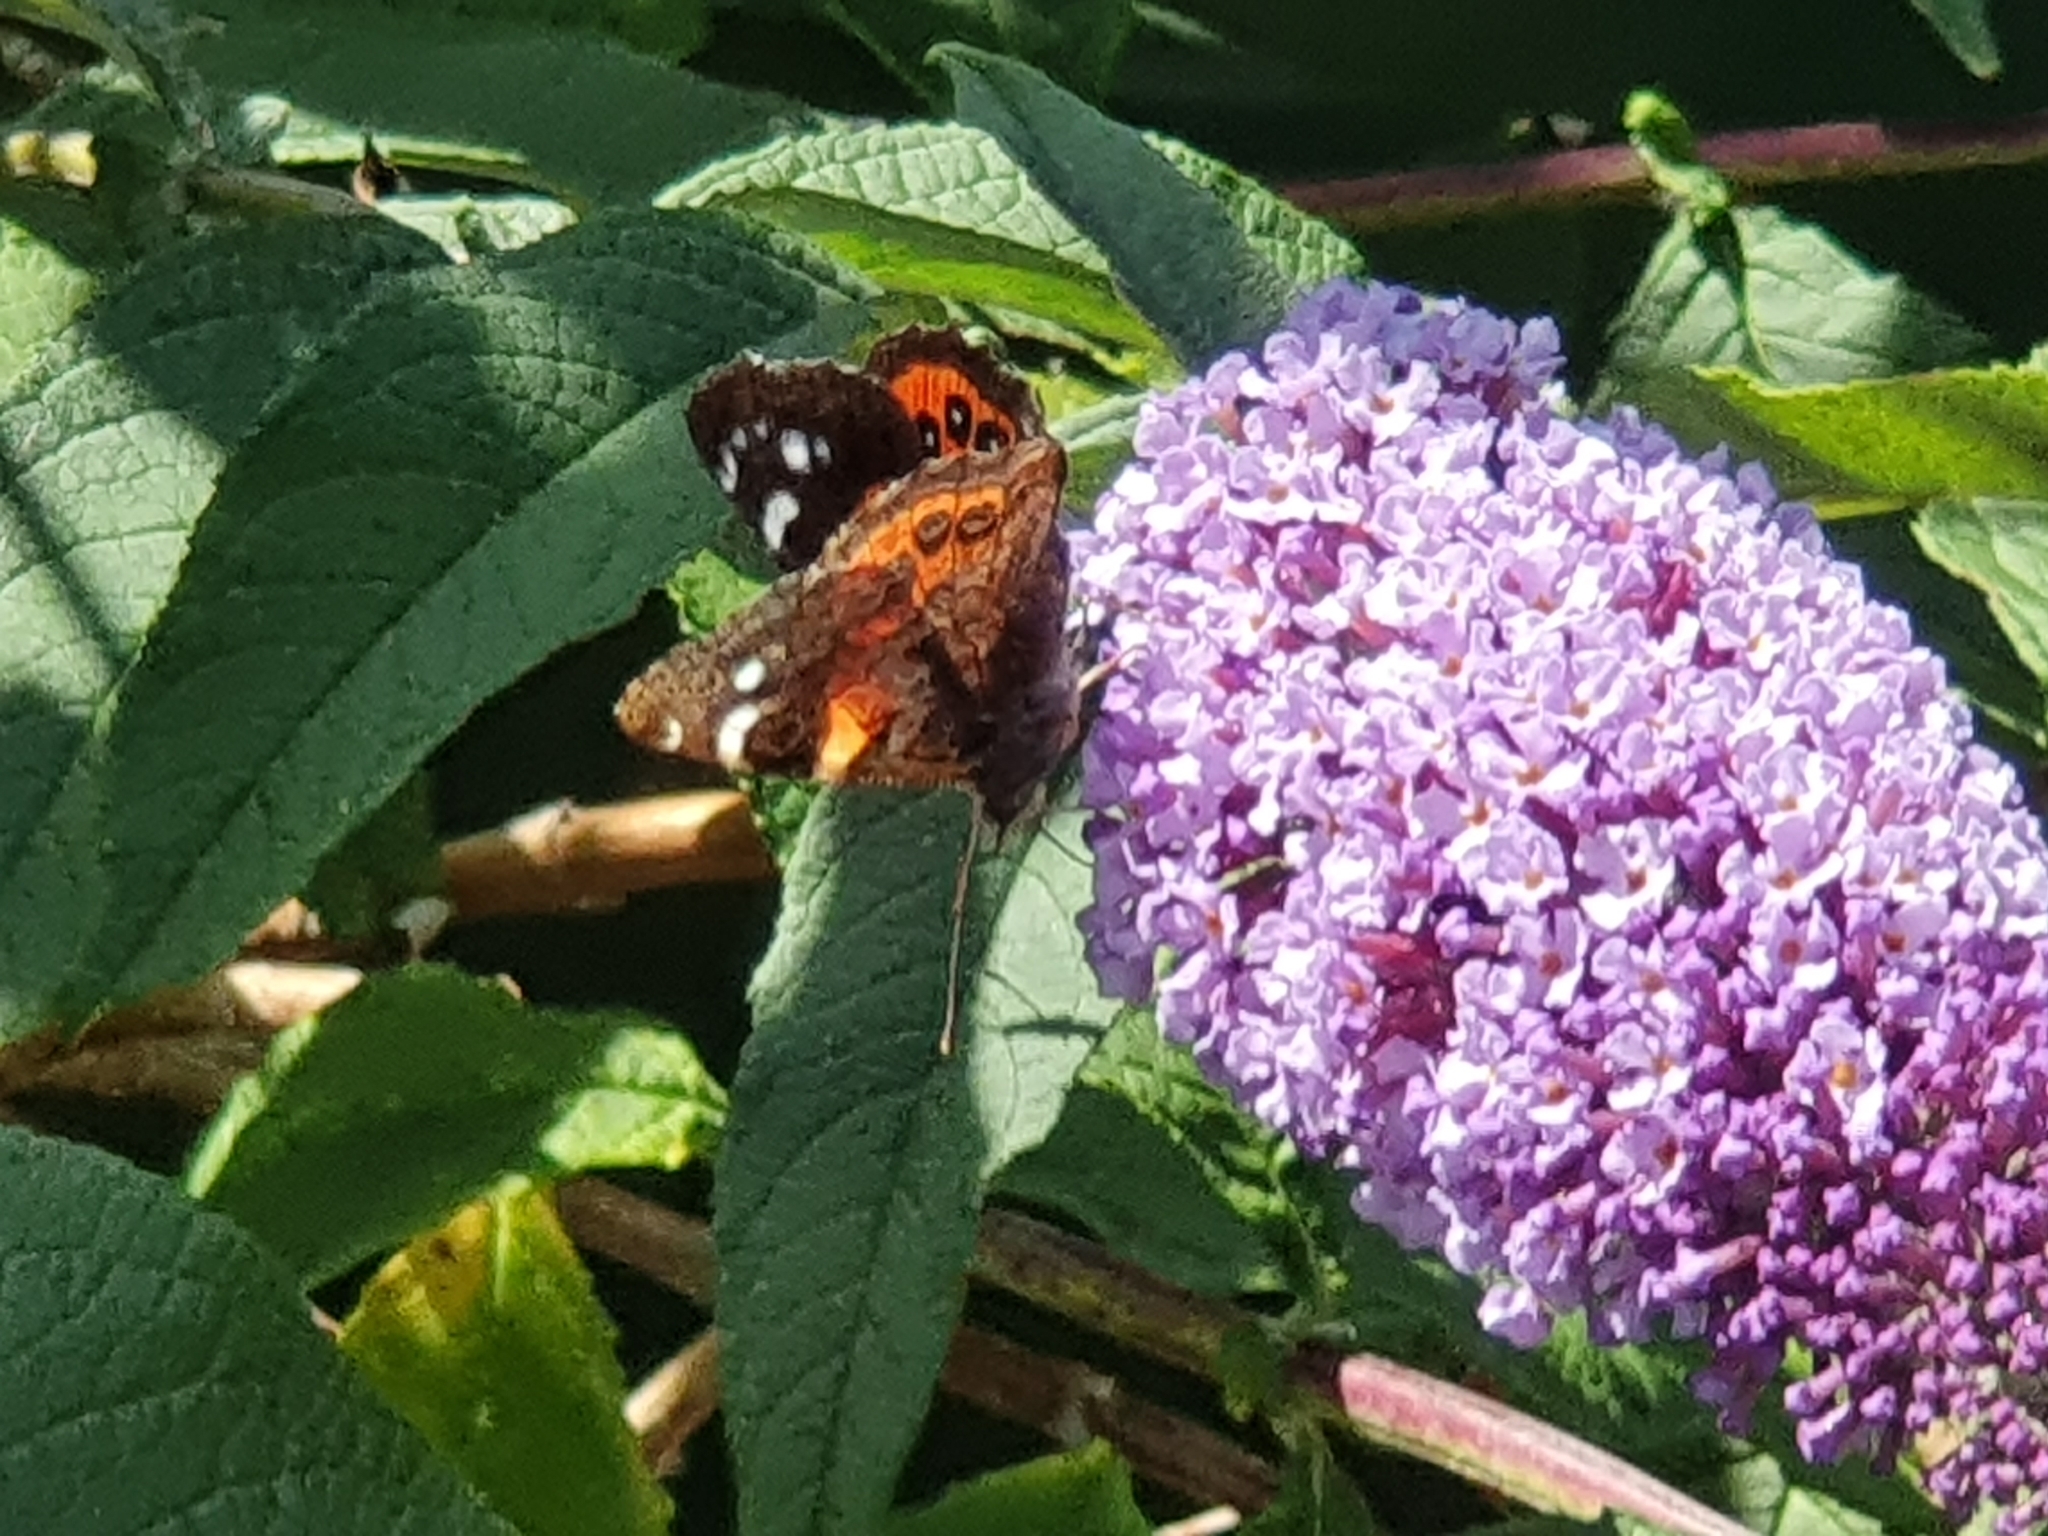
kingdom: Animalia
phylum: Arthropoda
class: Insecta
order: Lepidoptera
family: Nymphalidae
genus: Vanessa
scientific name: Vanessa gonerilla
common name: New zealand red admiral
